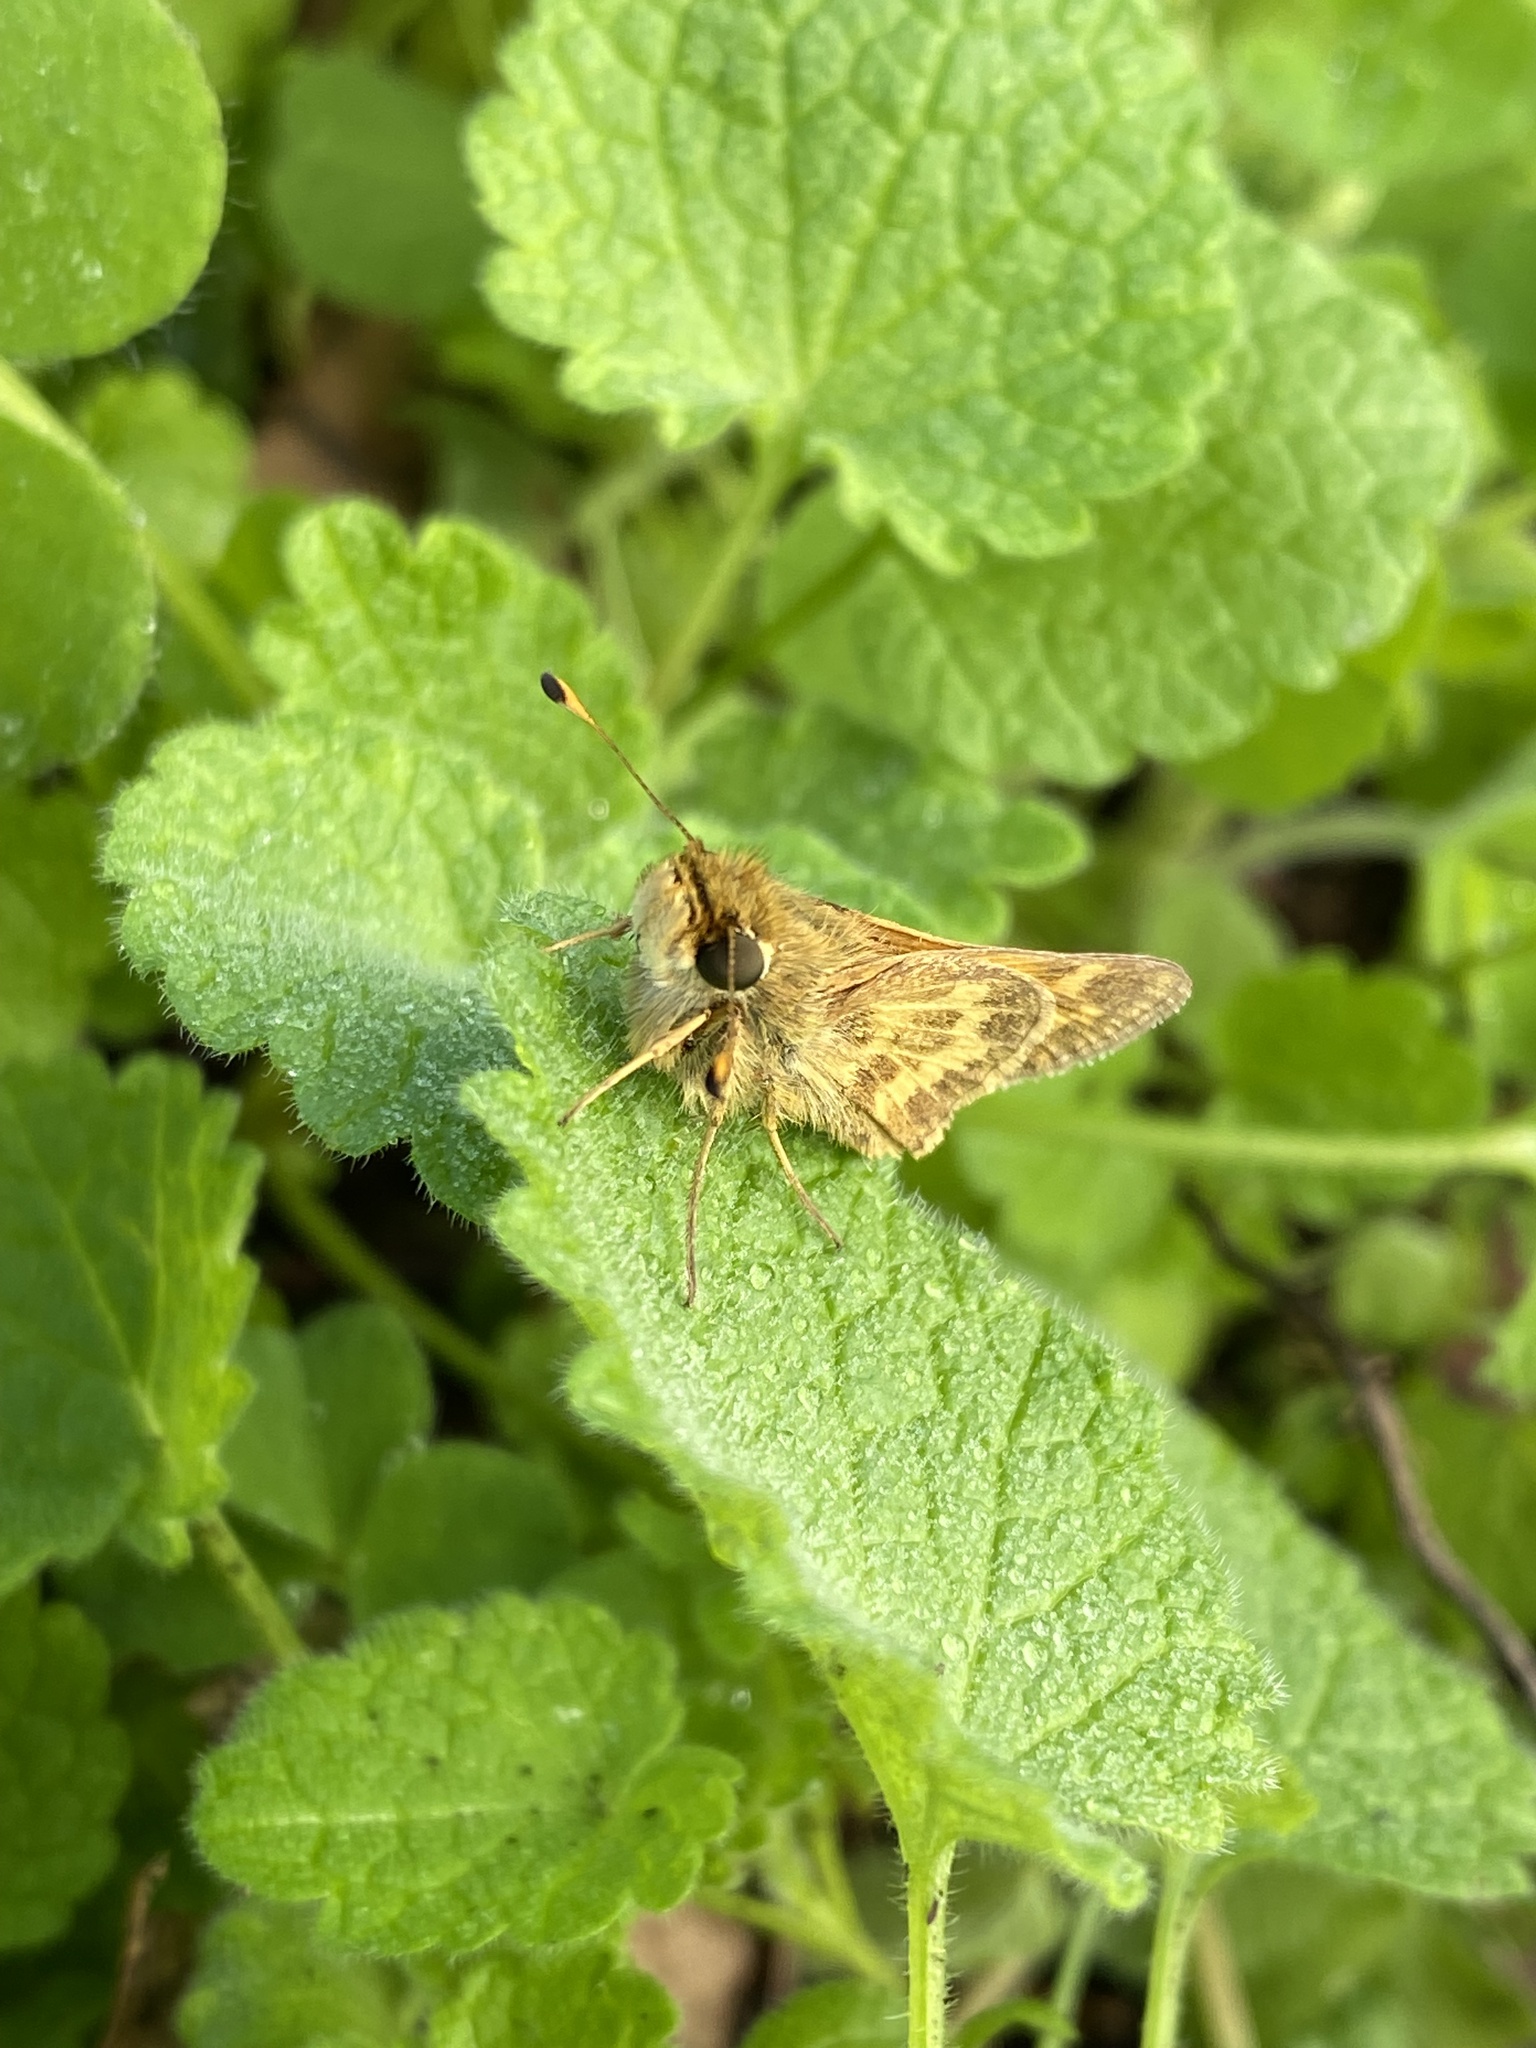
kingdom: Animalia
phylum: Arthropoda
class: Insecta
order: Lepidoptera
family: Hesperiidae
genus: Atalopedes
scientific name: Atalopedes campestris
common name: Sachem
